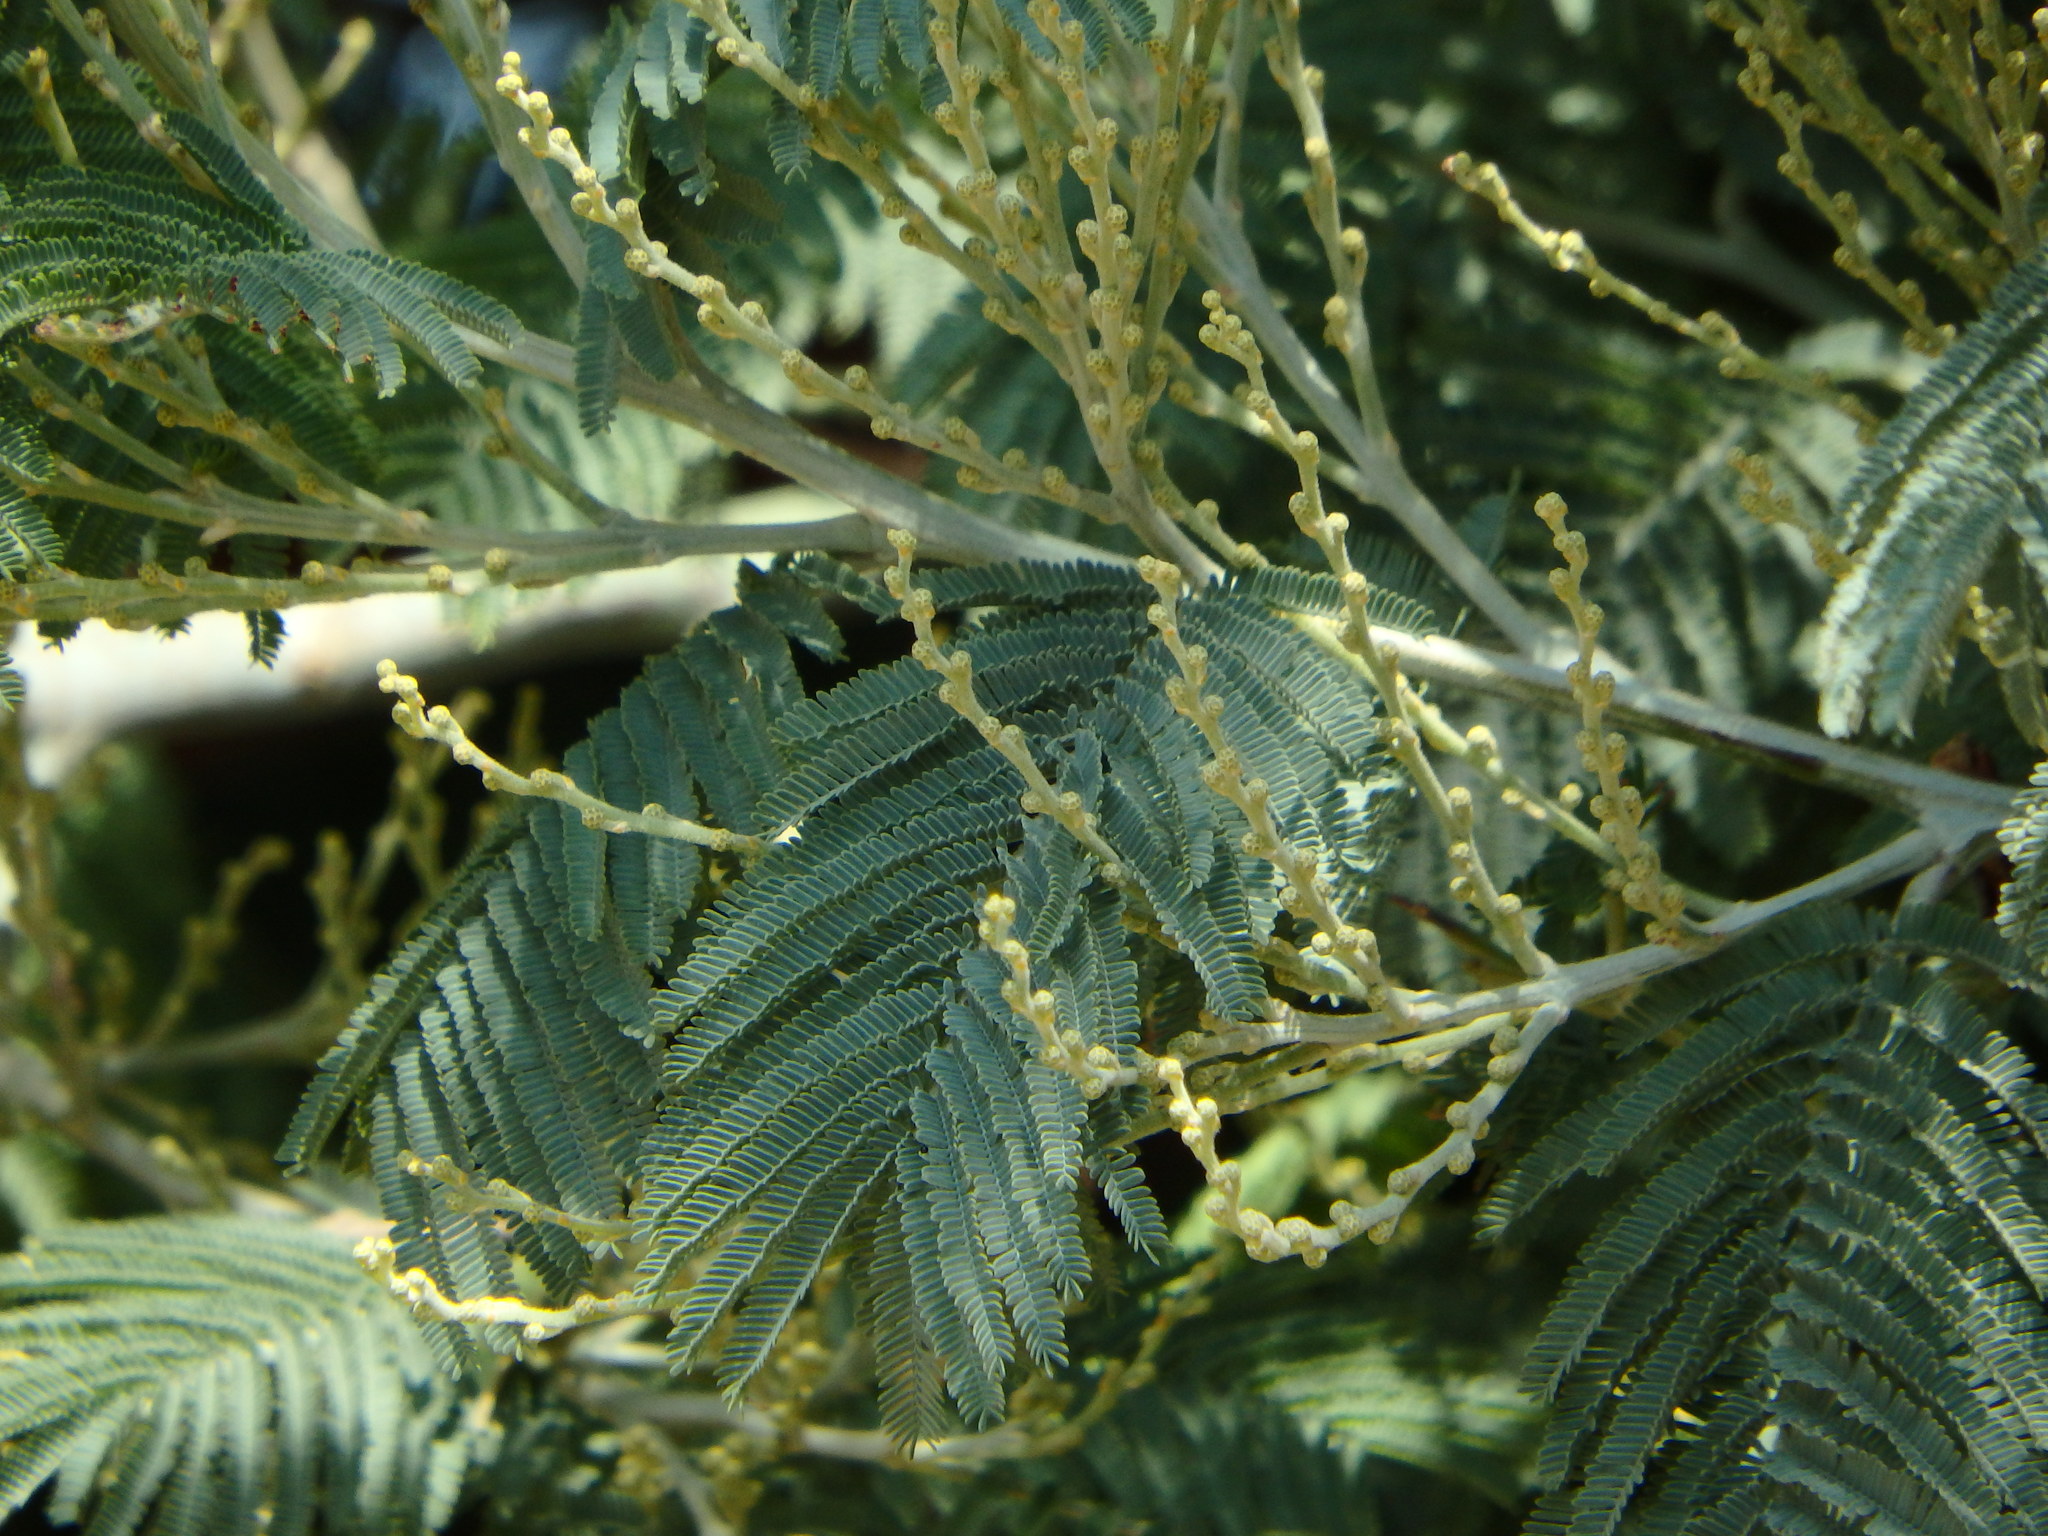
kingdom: Plantae
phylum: Tracheophyta
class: Magnoliopsida
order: Fabales
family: Fabaceae
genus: Acacia
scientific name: Acacia dealbata
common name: Silver wattle
